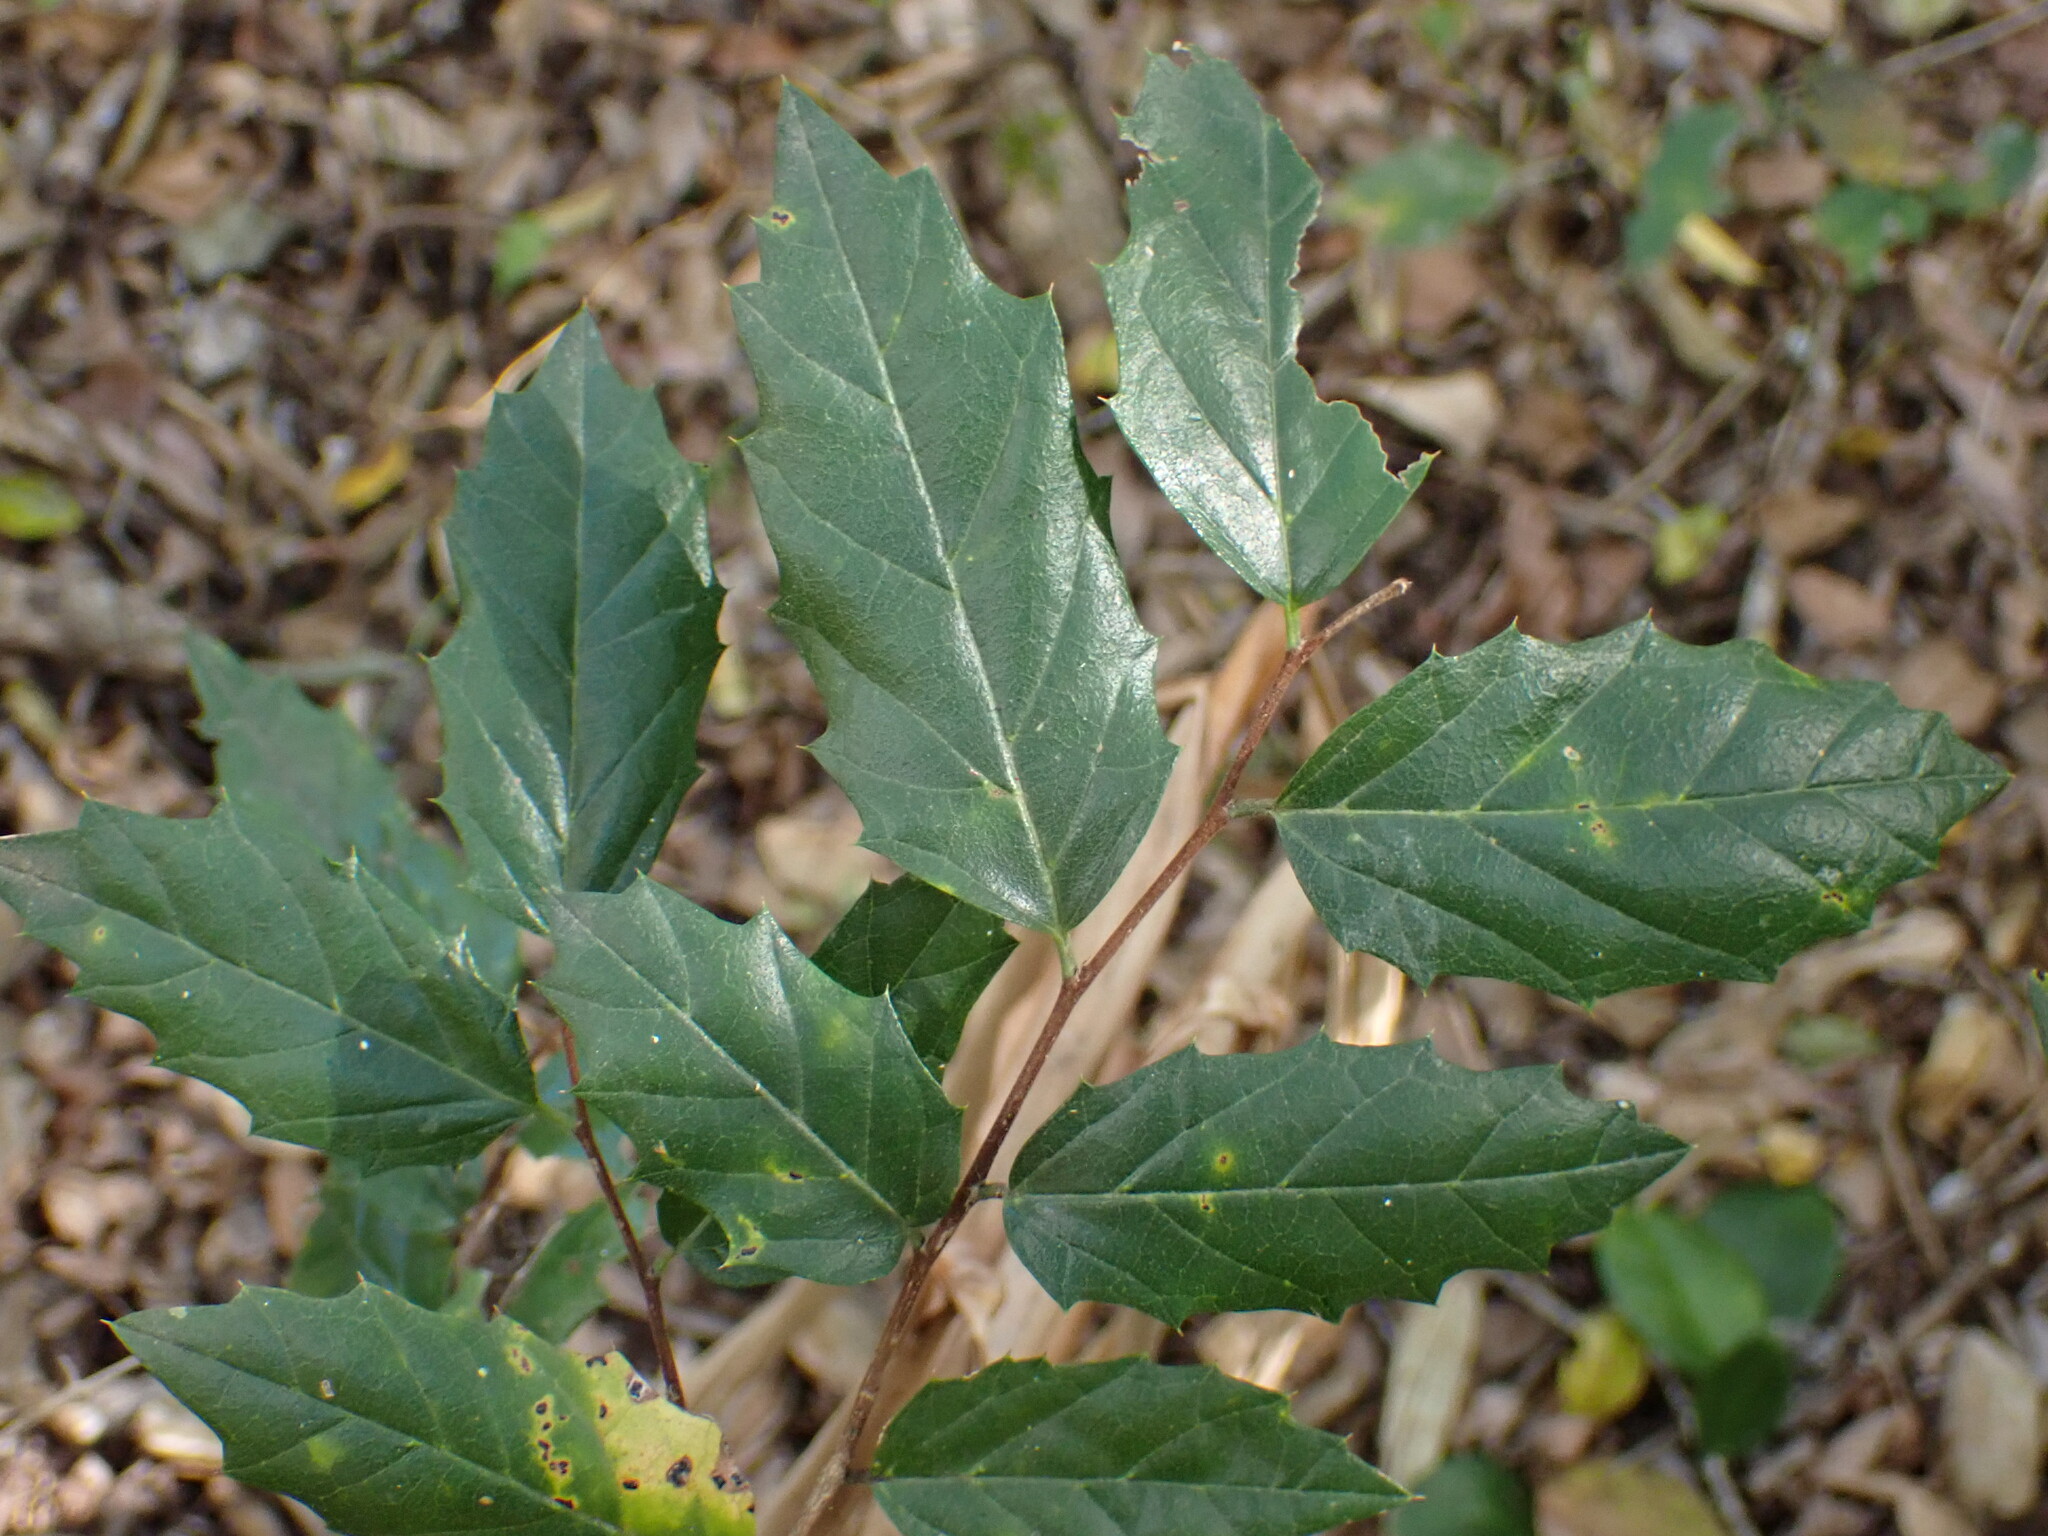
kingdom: Plantae
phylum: Tracheophyta
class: Magnoliopsida
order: Rosales
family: Cannabaceae
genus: Aphananthe
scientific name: Aphananthe philippinensis
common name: Wild holly
